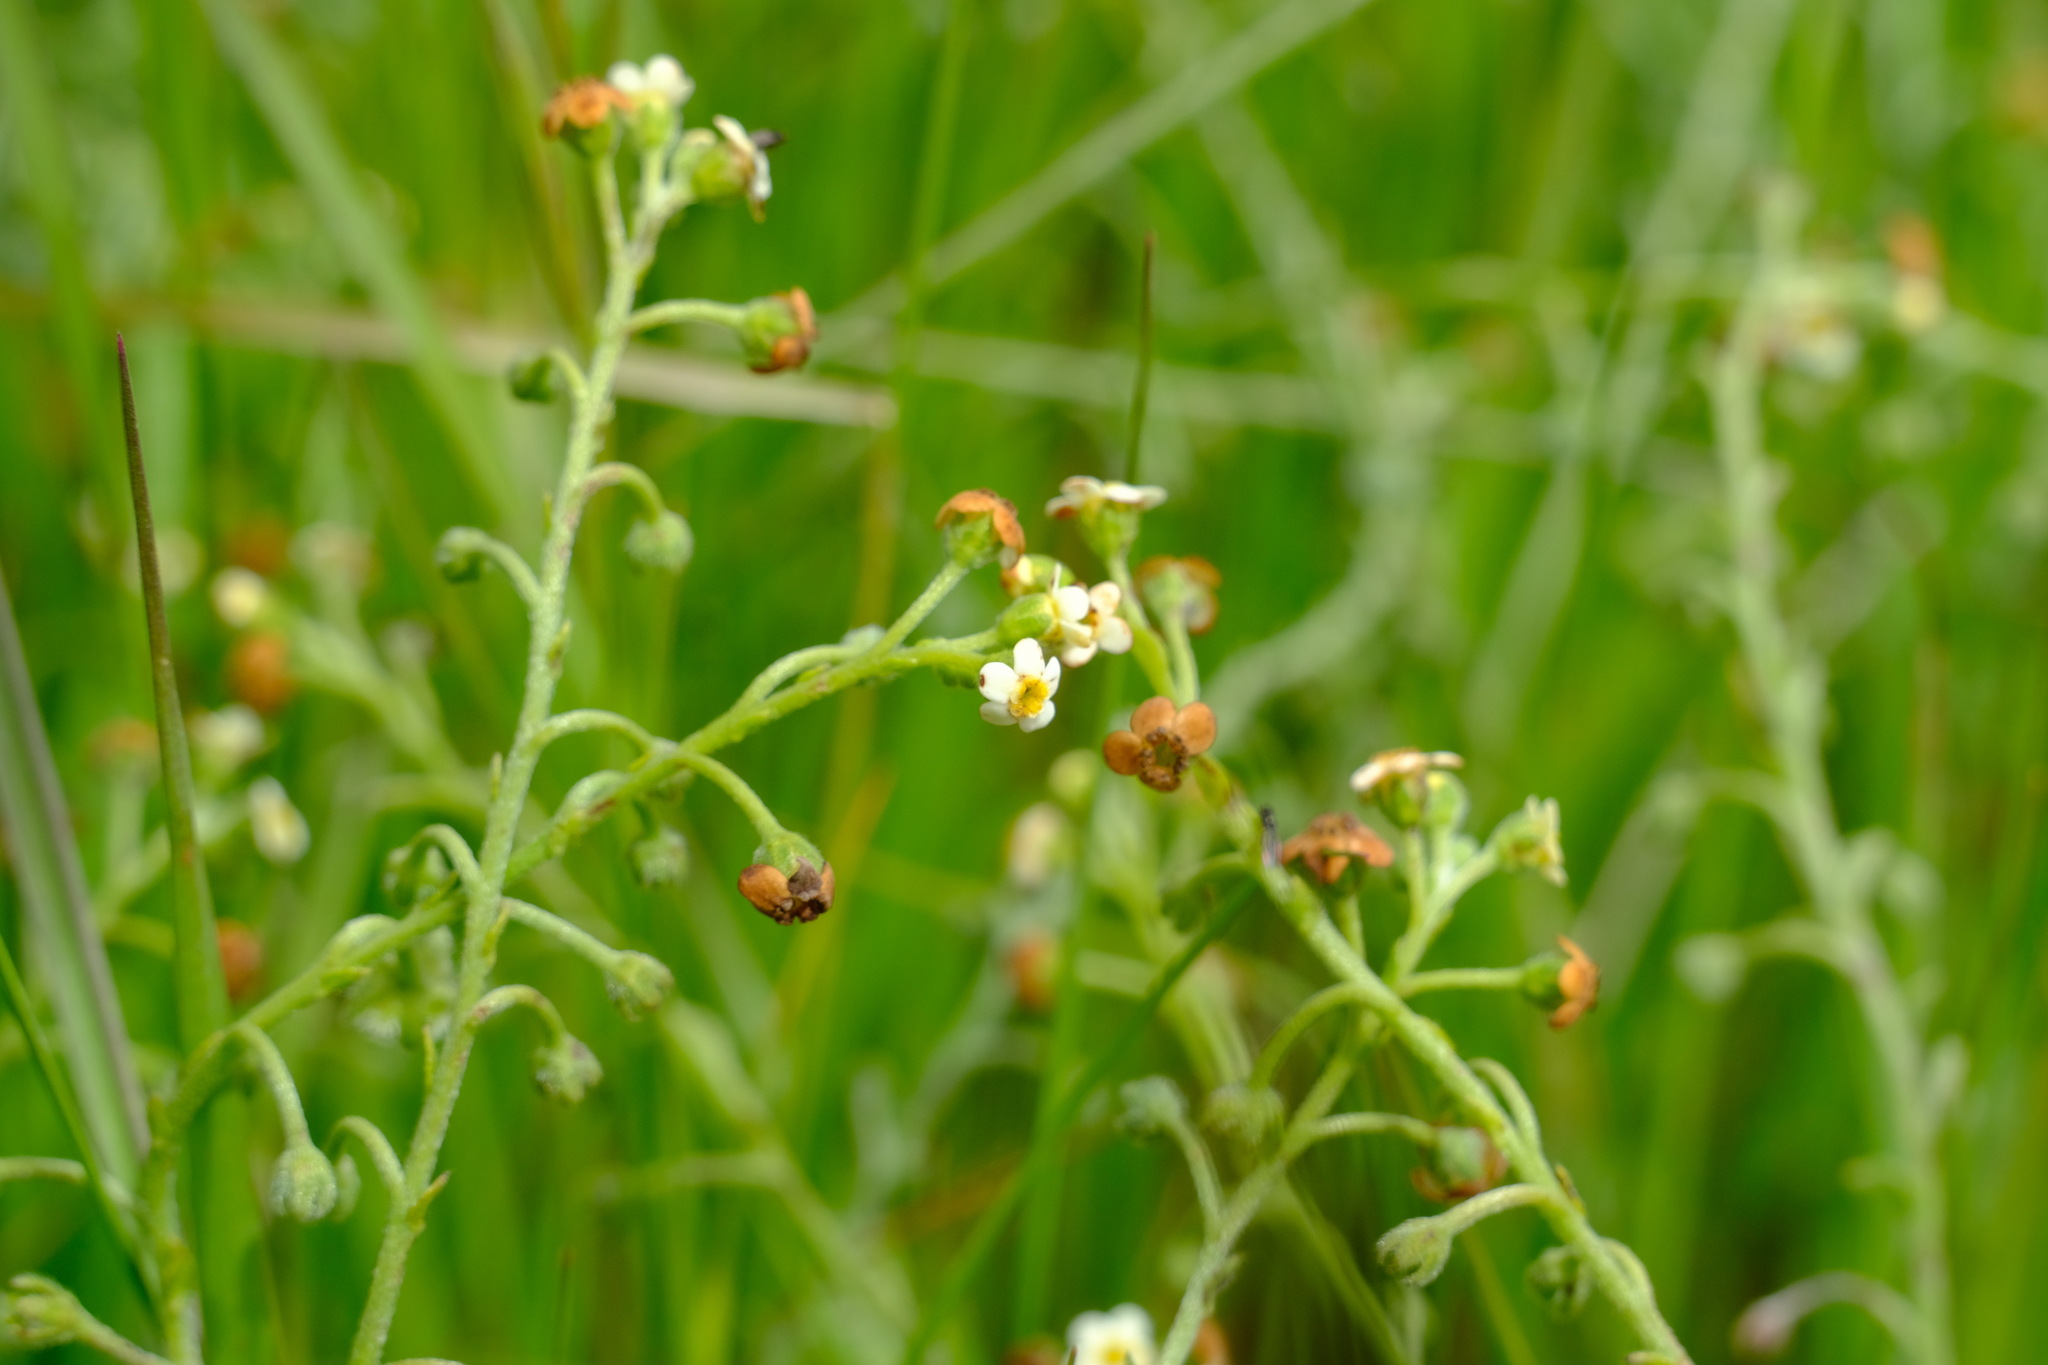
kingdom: Plantae
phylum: Tracheophyta
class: Magnoliopsida
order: Boraginales
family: Boraginaceae
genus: Hackelia
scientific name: Hackelia suaveolens
